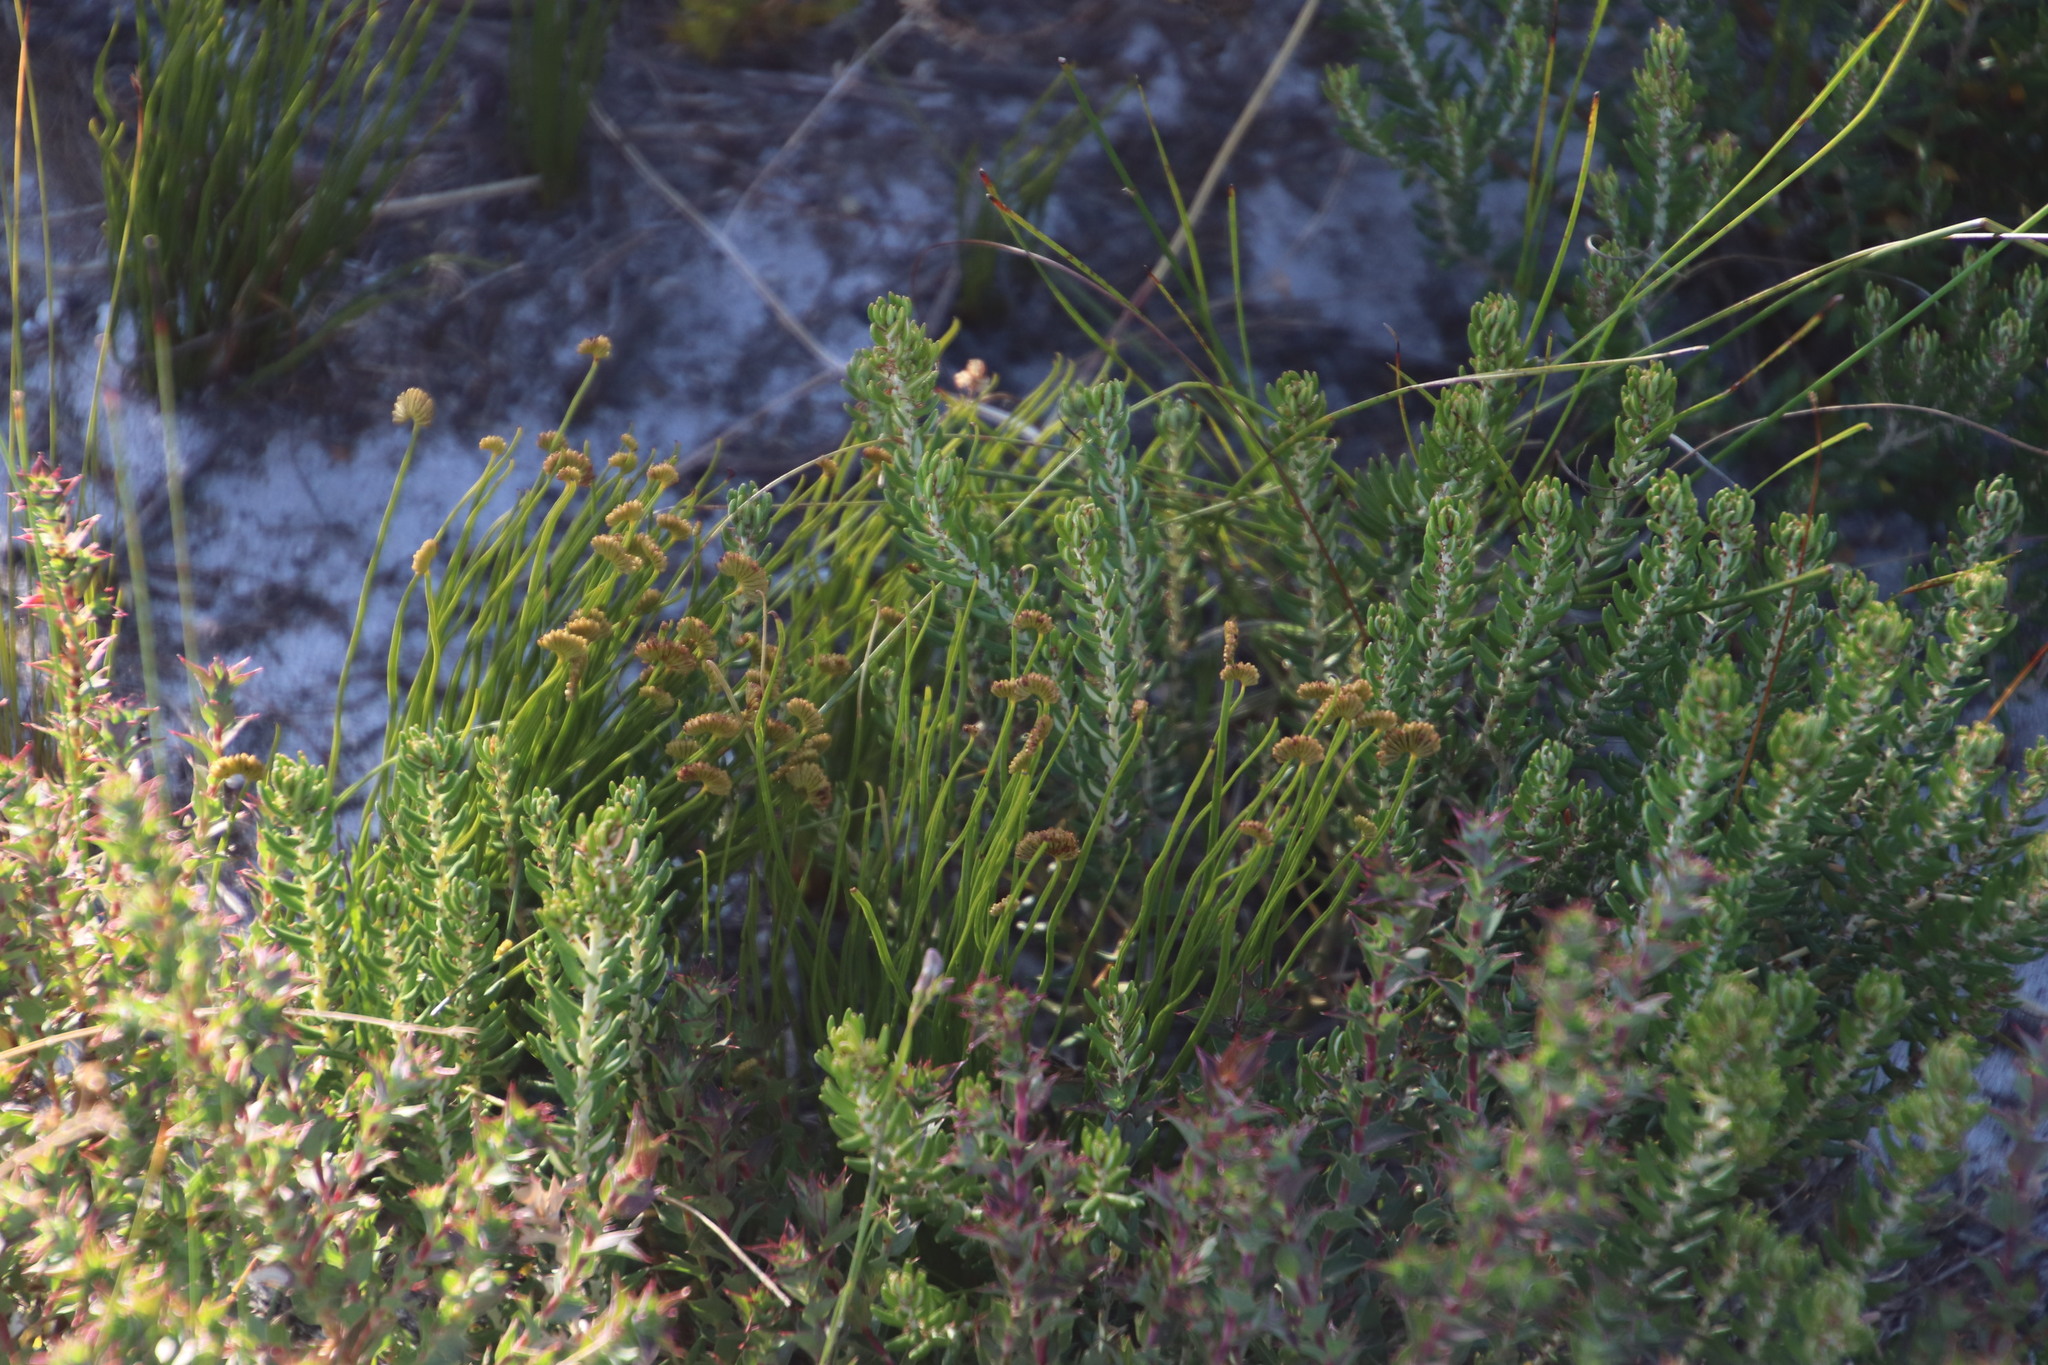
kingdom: Plantae
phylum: Tracheophyta
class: Polypodiopsida
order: Schizaeales
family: Schizaeaceae
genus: Schizaea
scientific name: Schizaea pectinata
